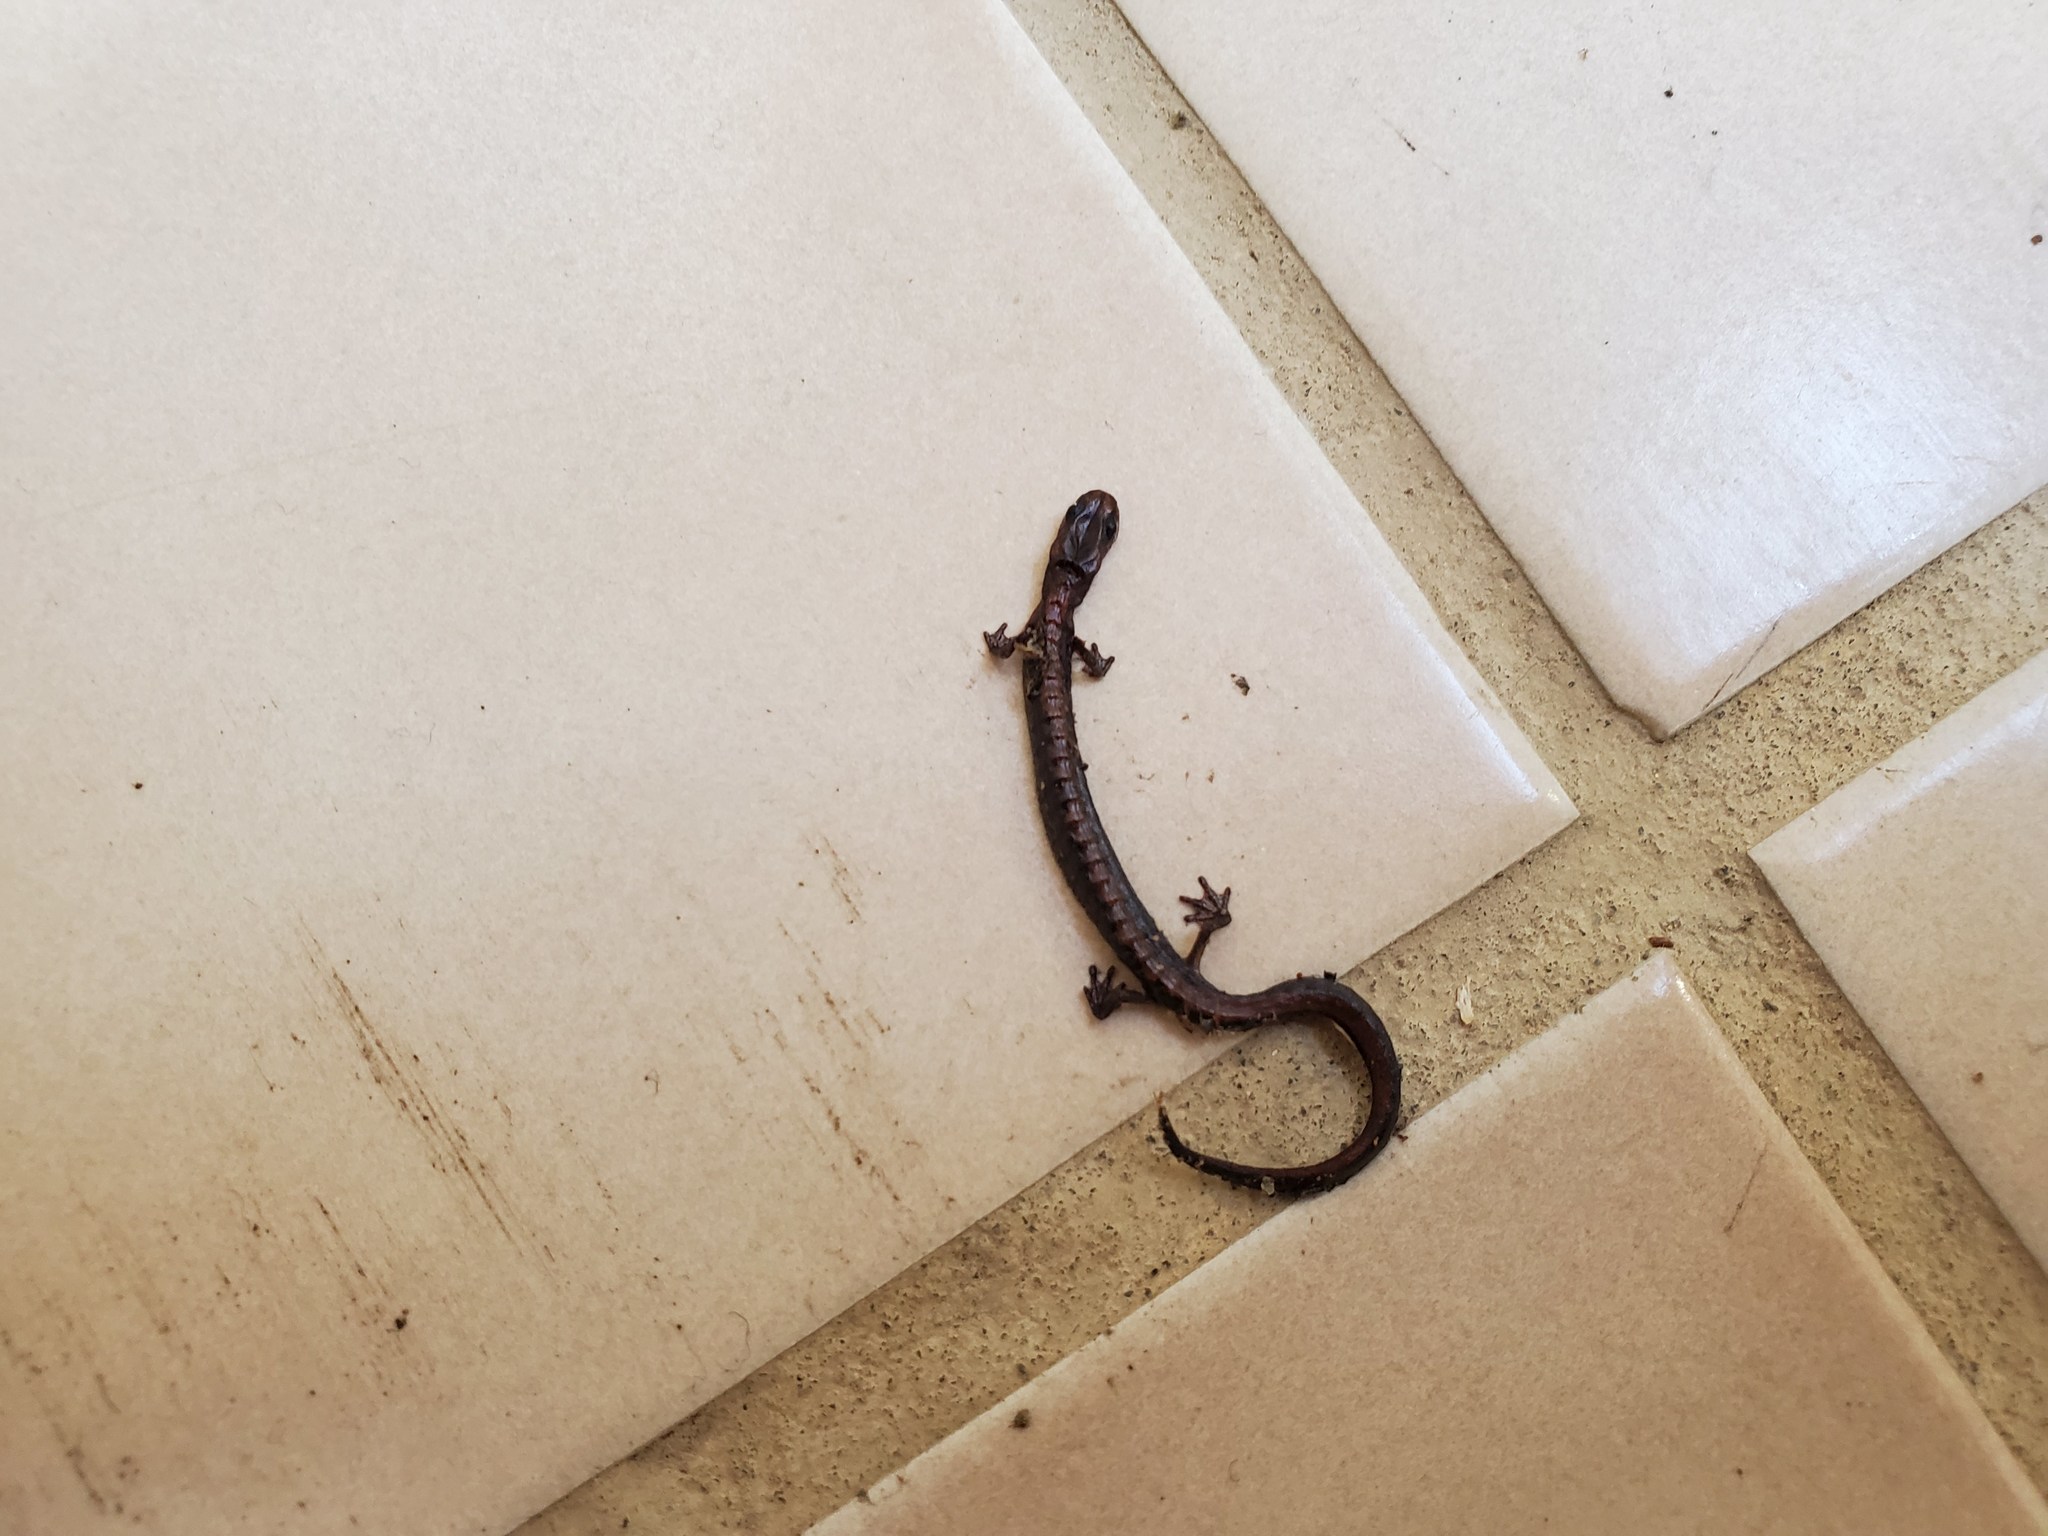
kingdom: Animalia
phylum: Chordata
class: Amphibia
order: Caudata
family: Plethodontidae
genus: Plethodon
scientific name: Plethodon dorsalis
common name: Northern zigzag salamander
